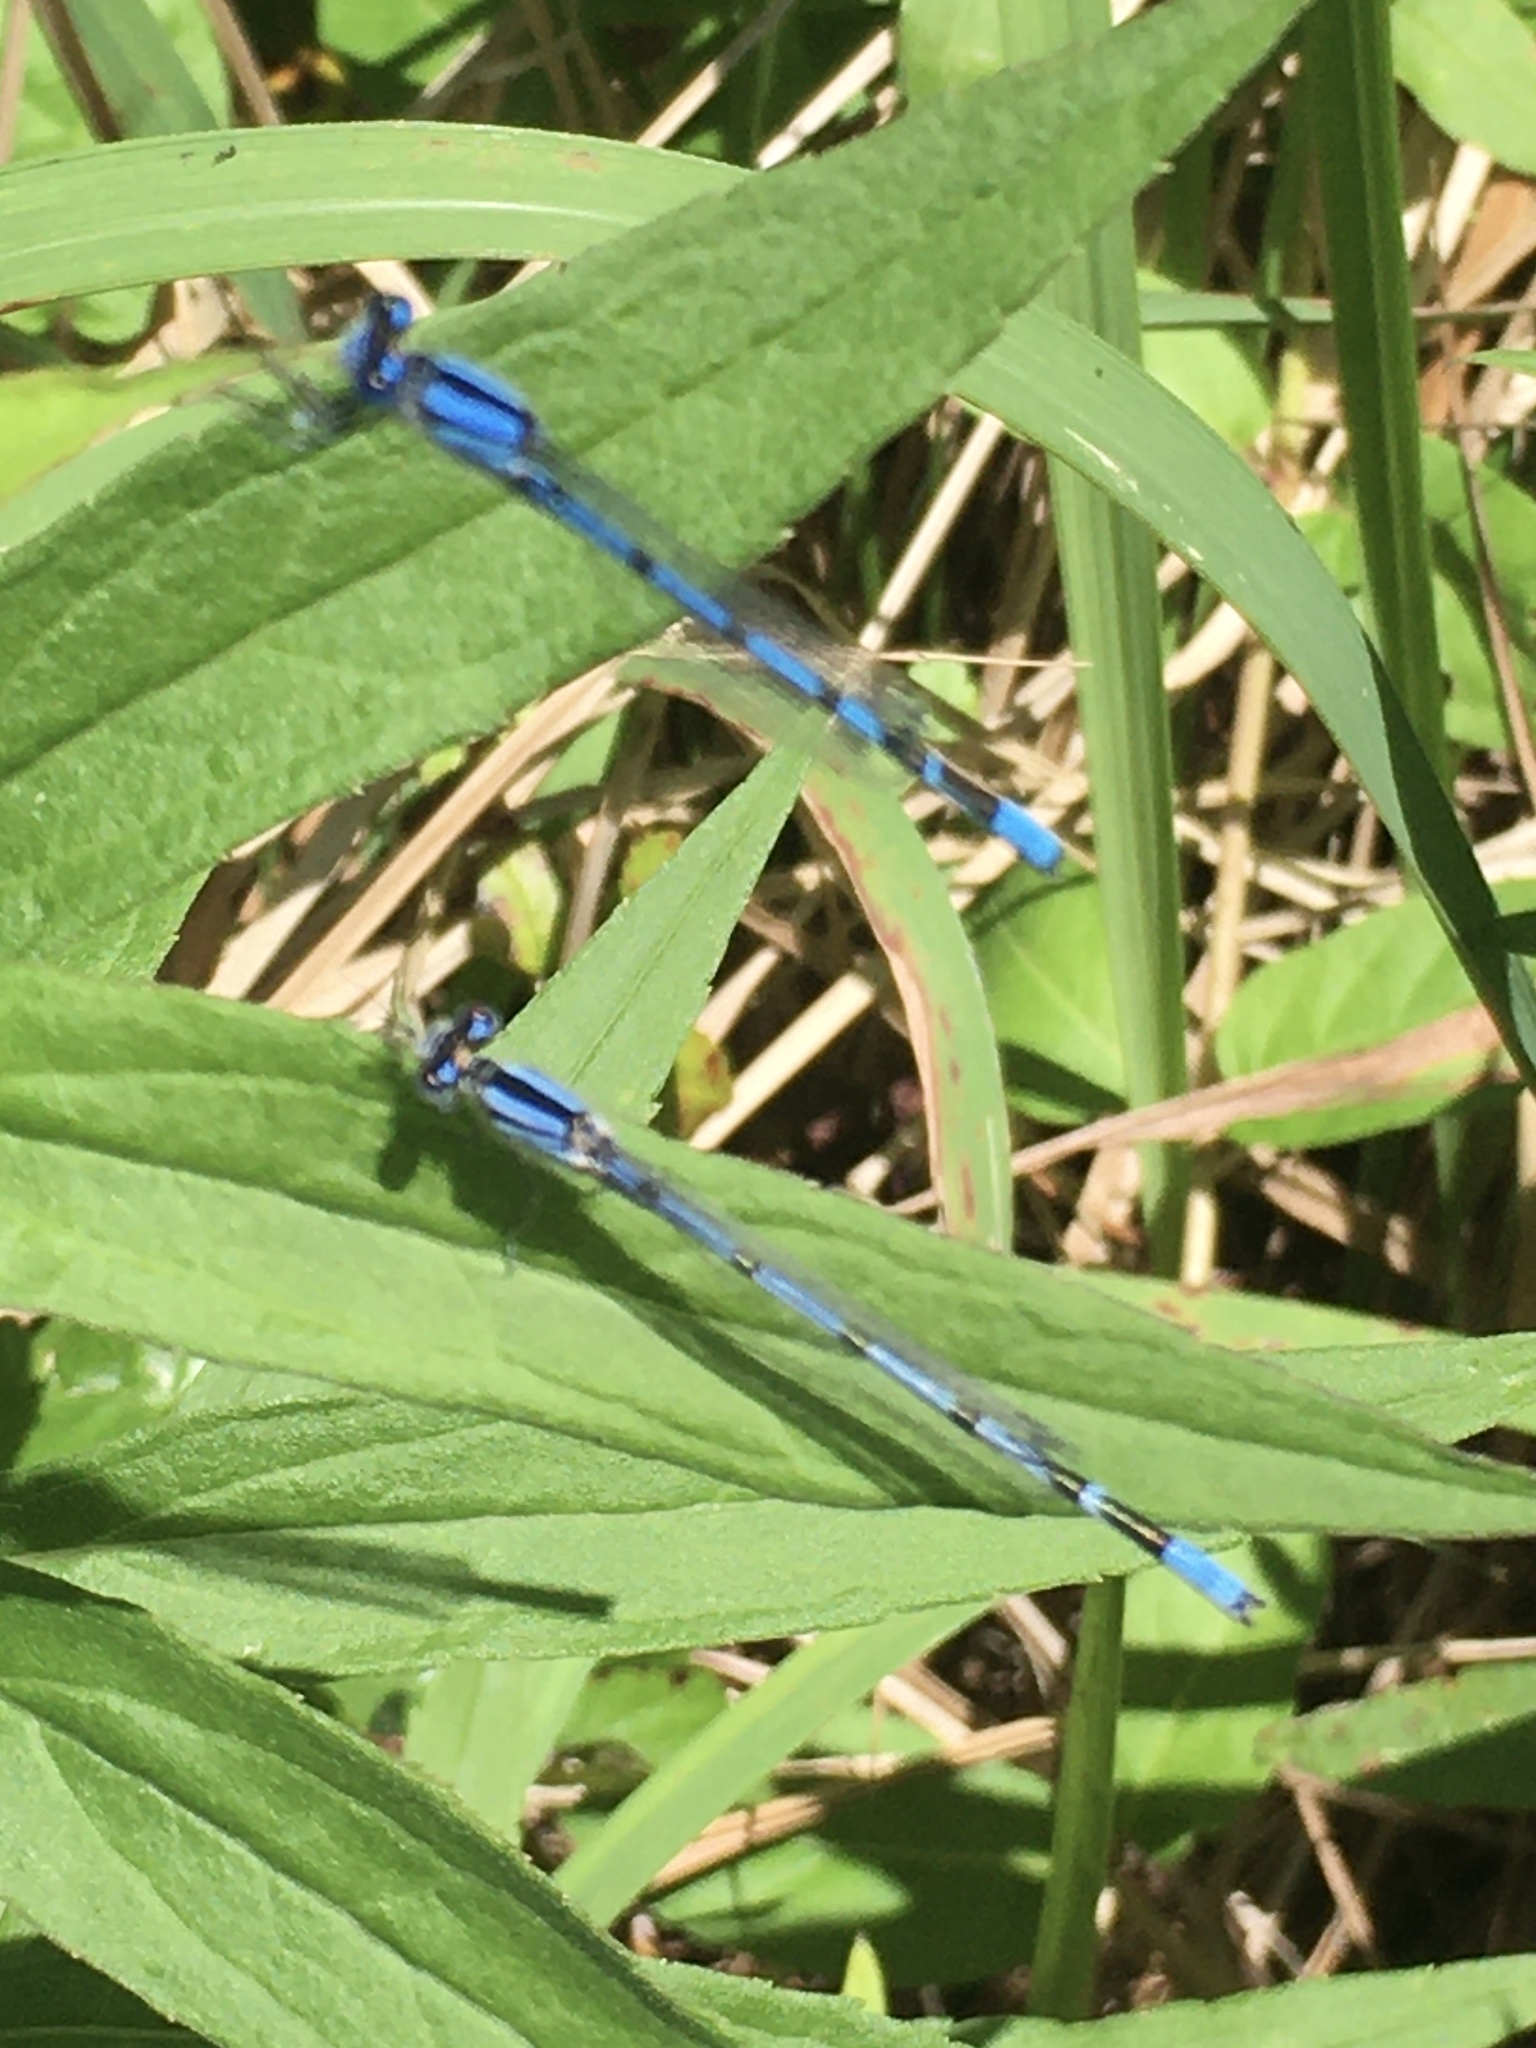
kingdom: Animalia
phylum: Arthropoda
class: Insecta
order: Odonata
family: Coenagrionidae
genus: Enallagma
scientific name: Enallagma civile
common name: Damselfly
